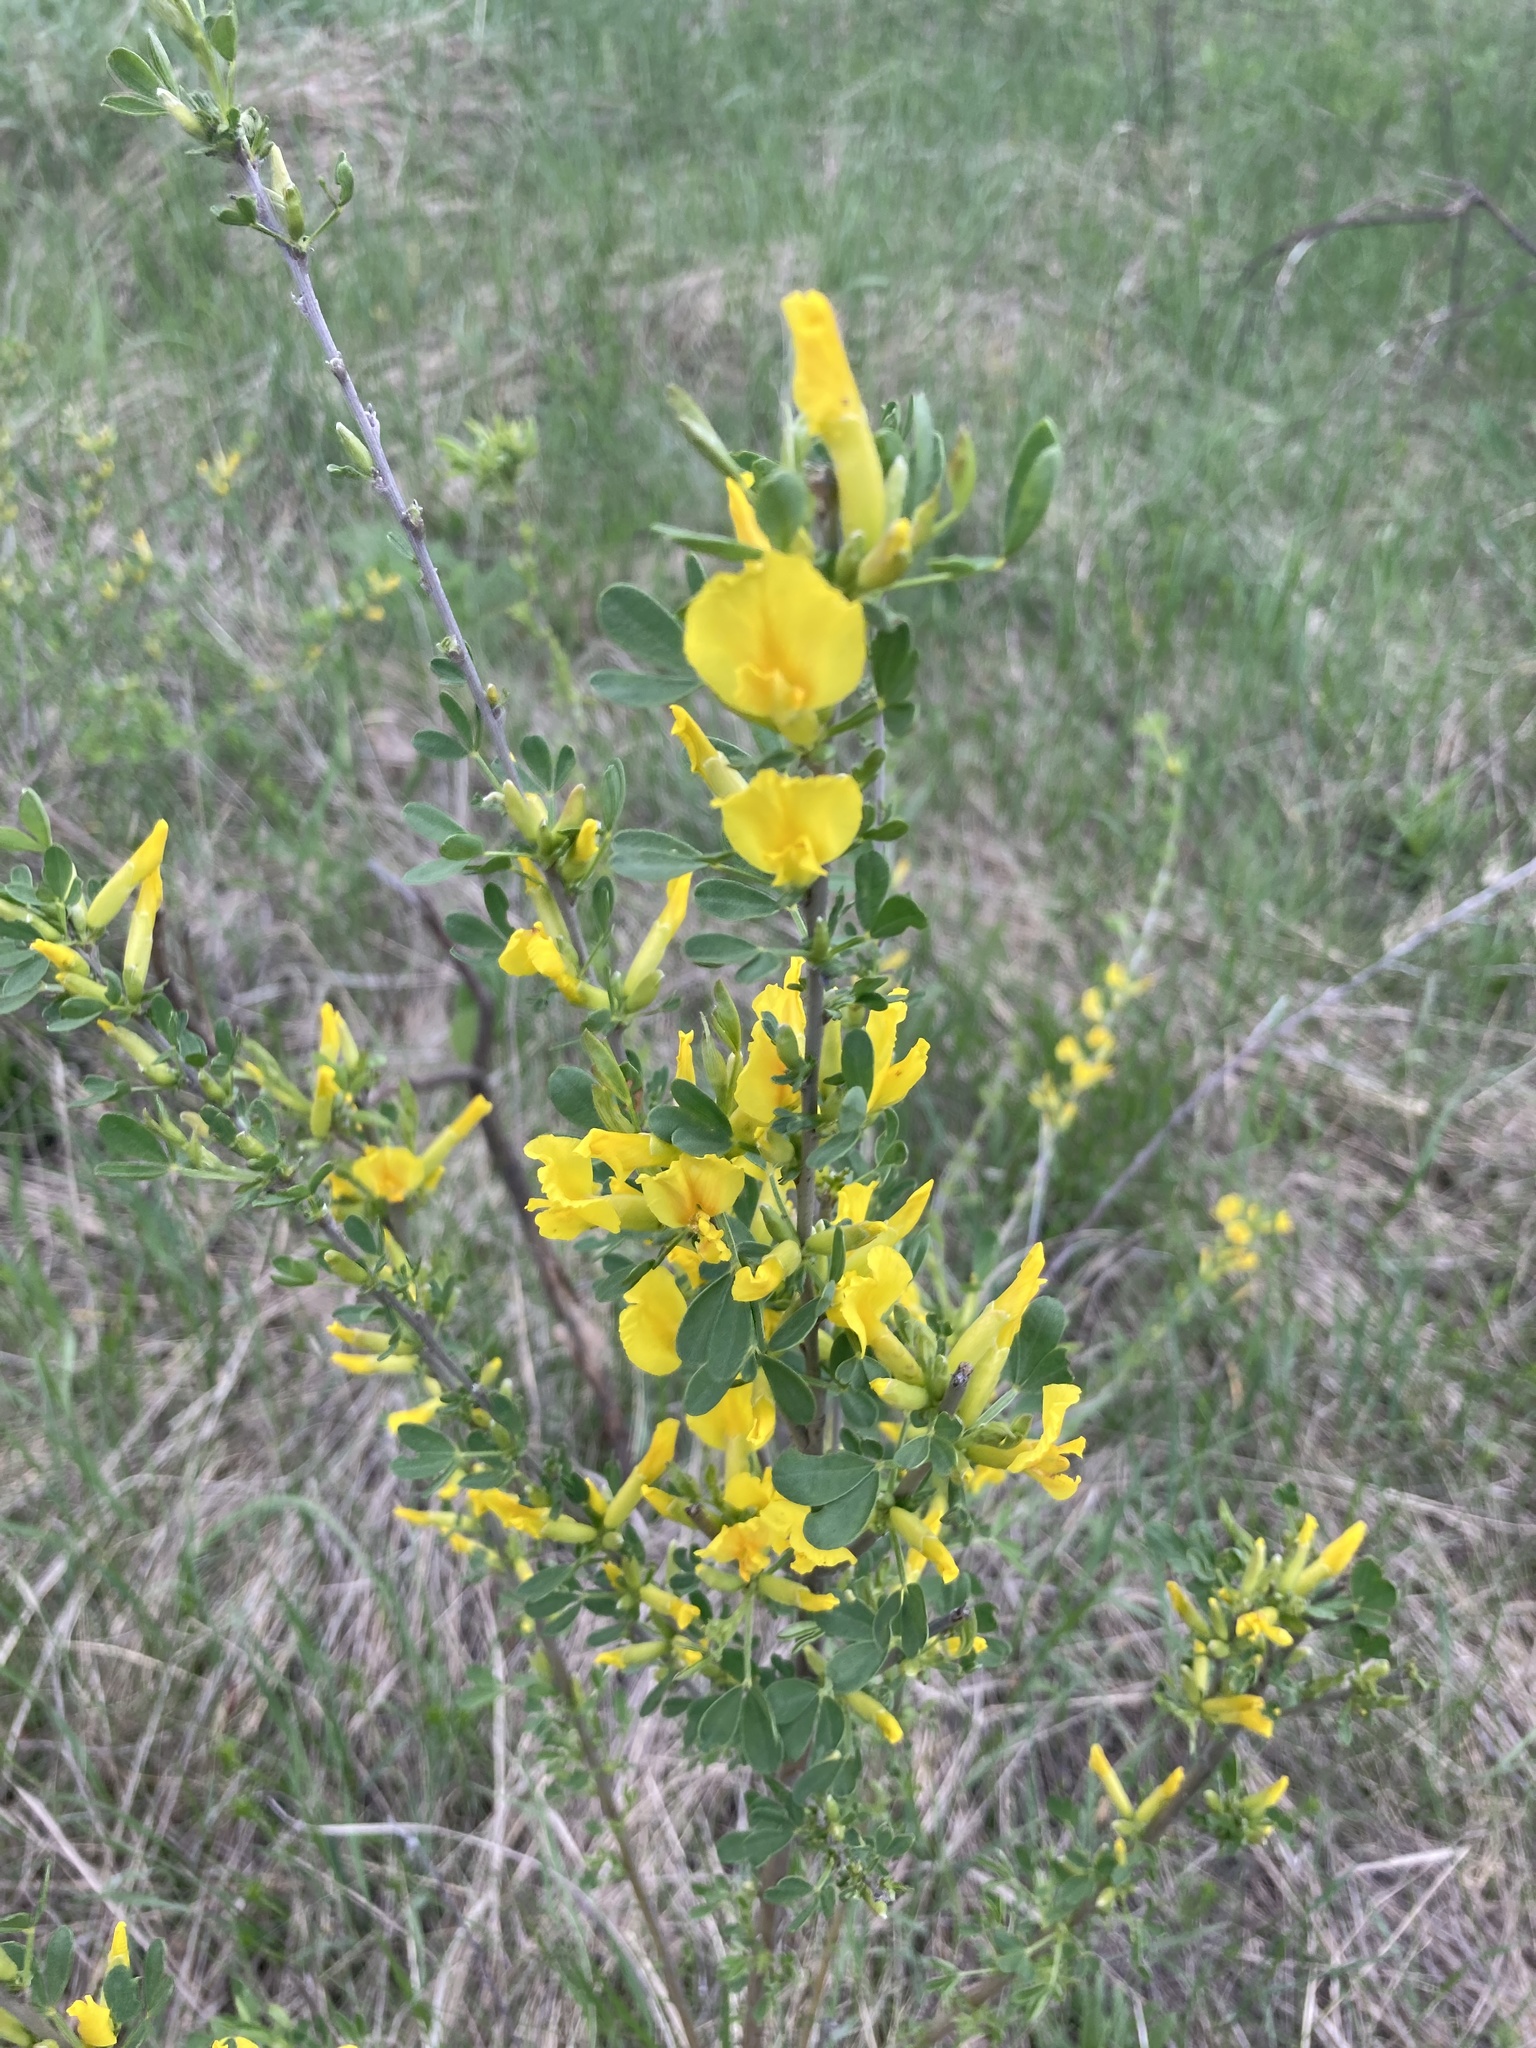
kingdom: Plantae
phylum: Tracheophyta
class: Magnoliopsida
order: Fabales
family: Fabaceae
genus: Chamaecytisus
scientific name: Chamaecytisus ruthenicus
